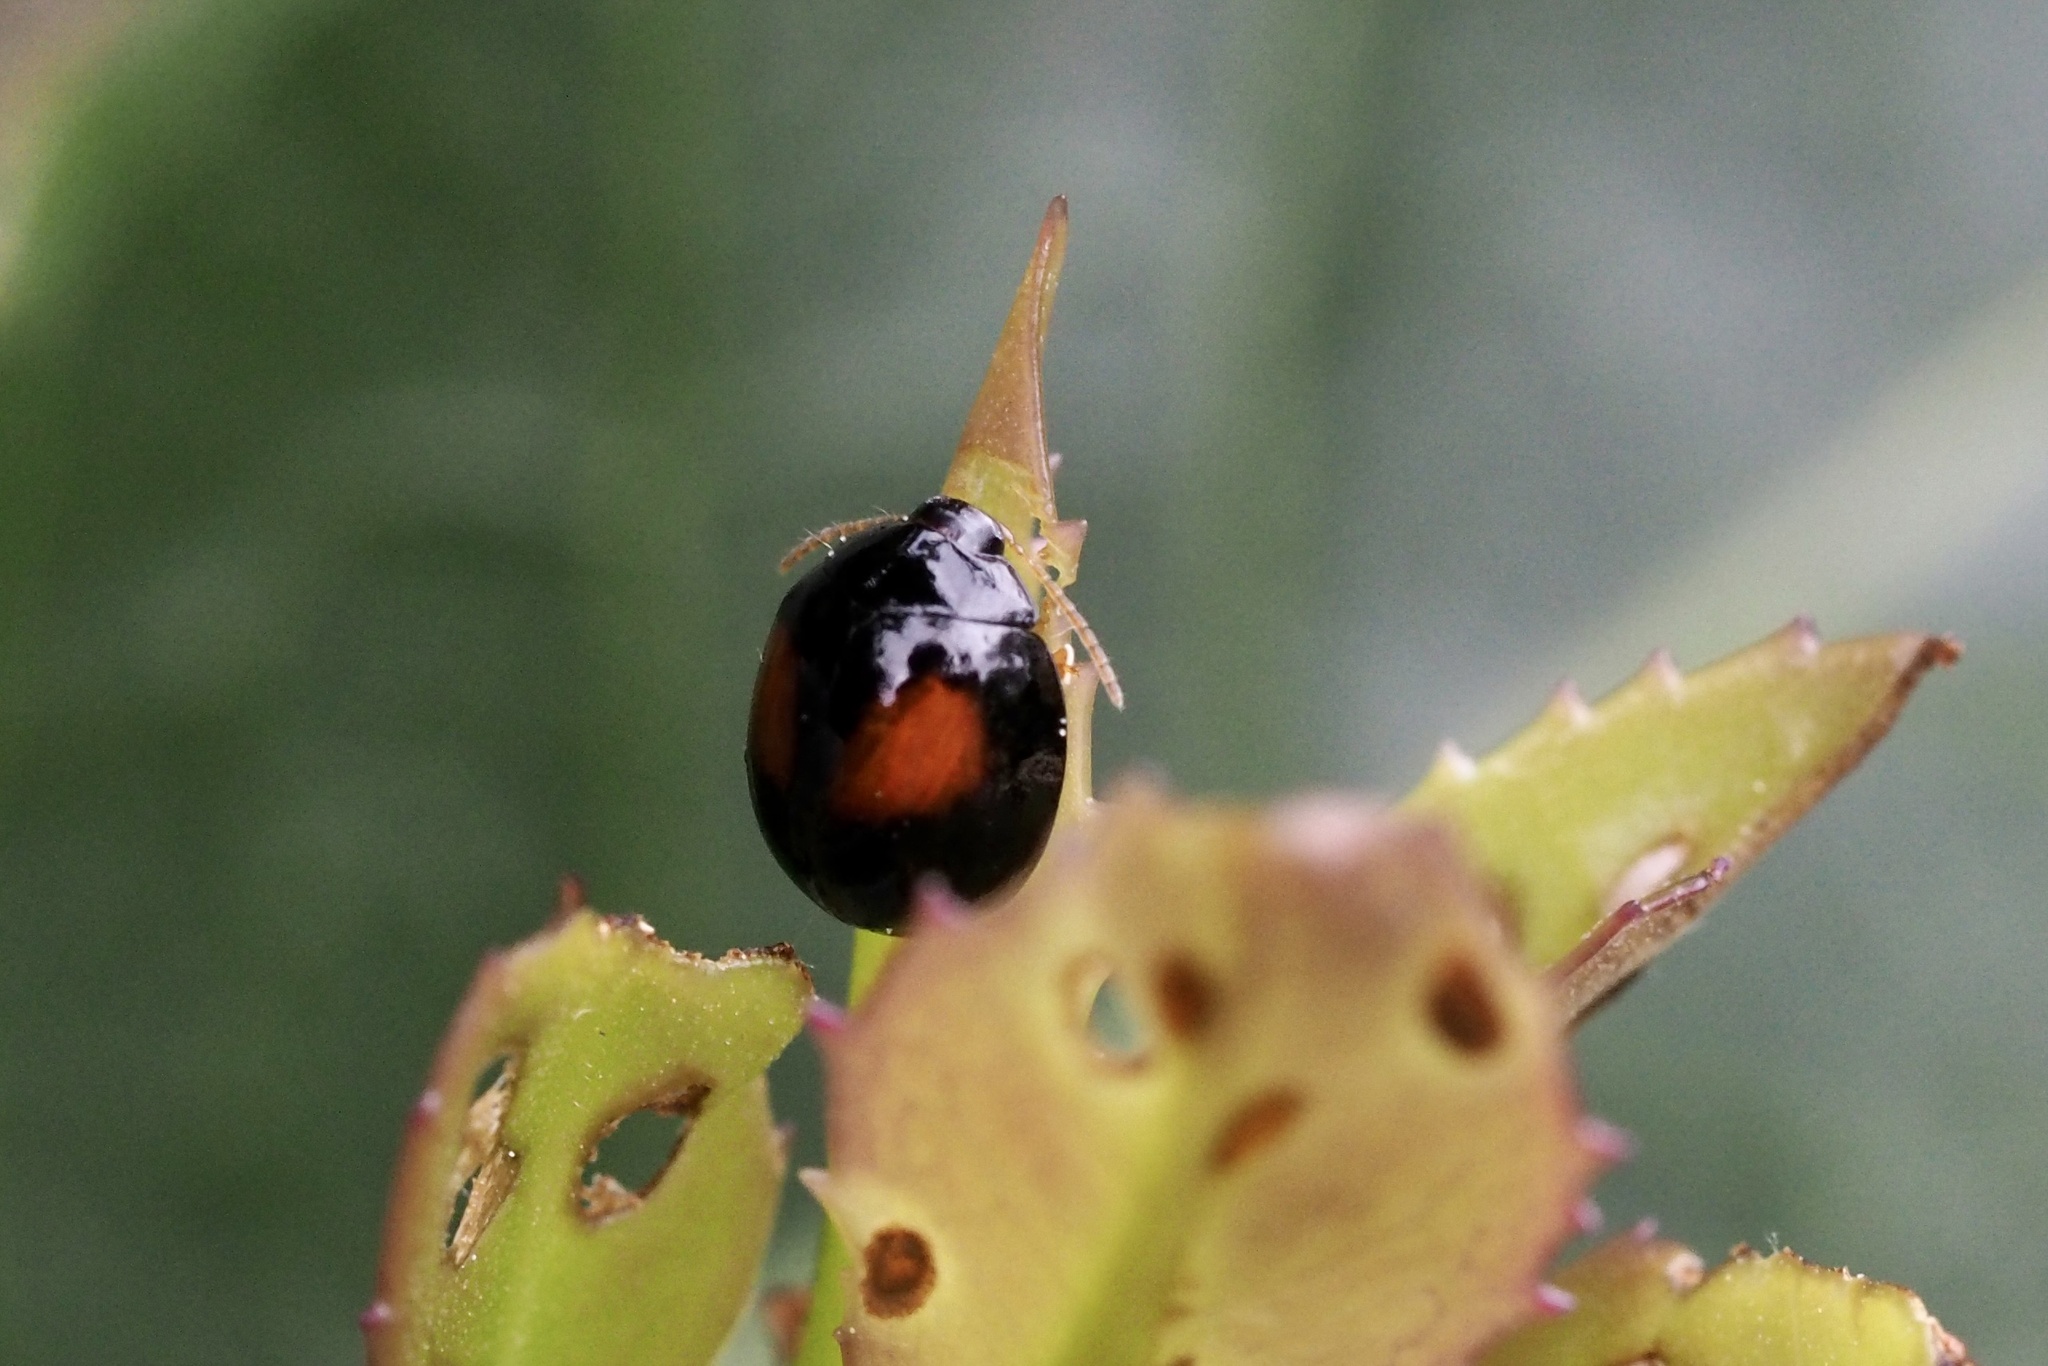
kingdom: Animalia
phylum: Arthropoda
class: Insecta
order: Coleoptera
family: Chrysomelidae
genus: Argopistes
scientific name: Argopistes coccinelliformis
